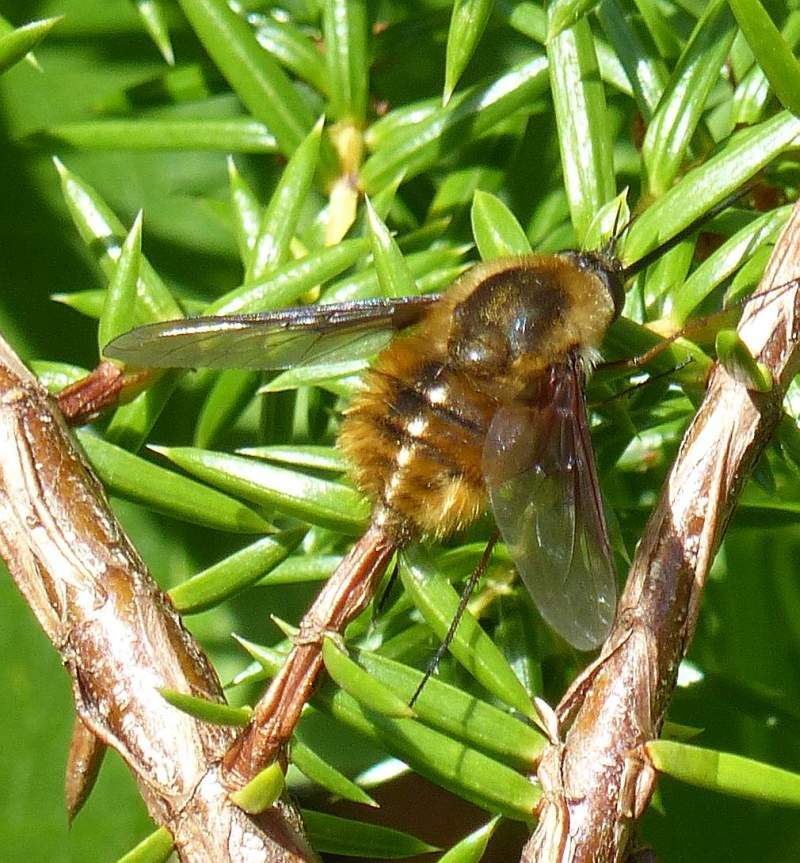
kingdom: Animalia
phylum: Arthropoda
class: Insecta
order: Diptera
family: Bombyliidae
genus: Bombylius
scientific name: Bombylius mexicanus
